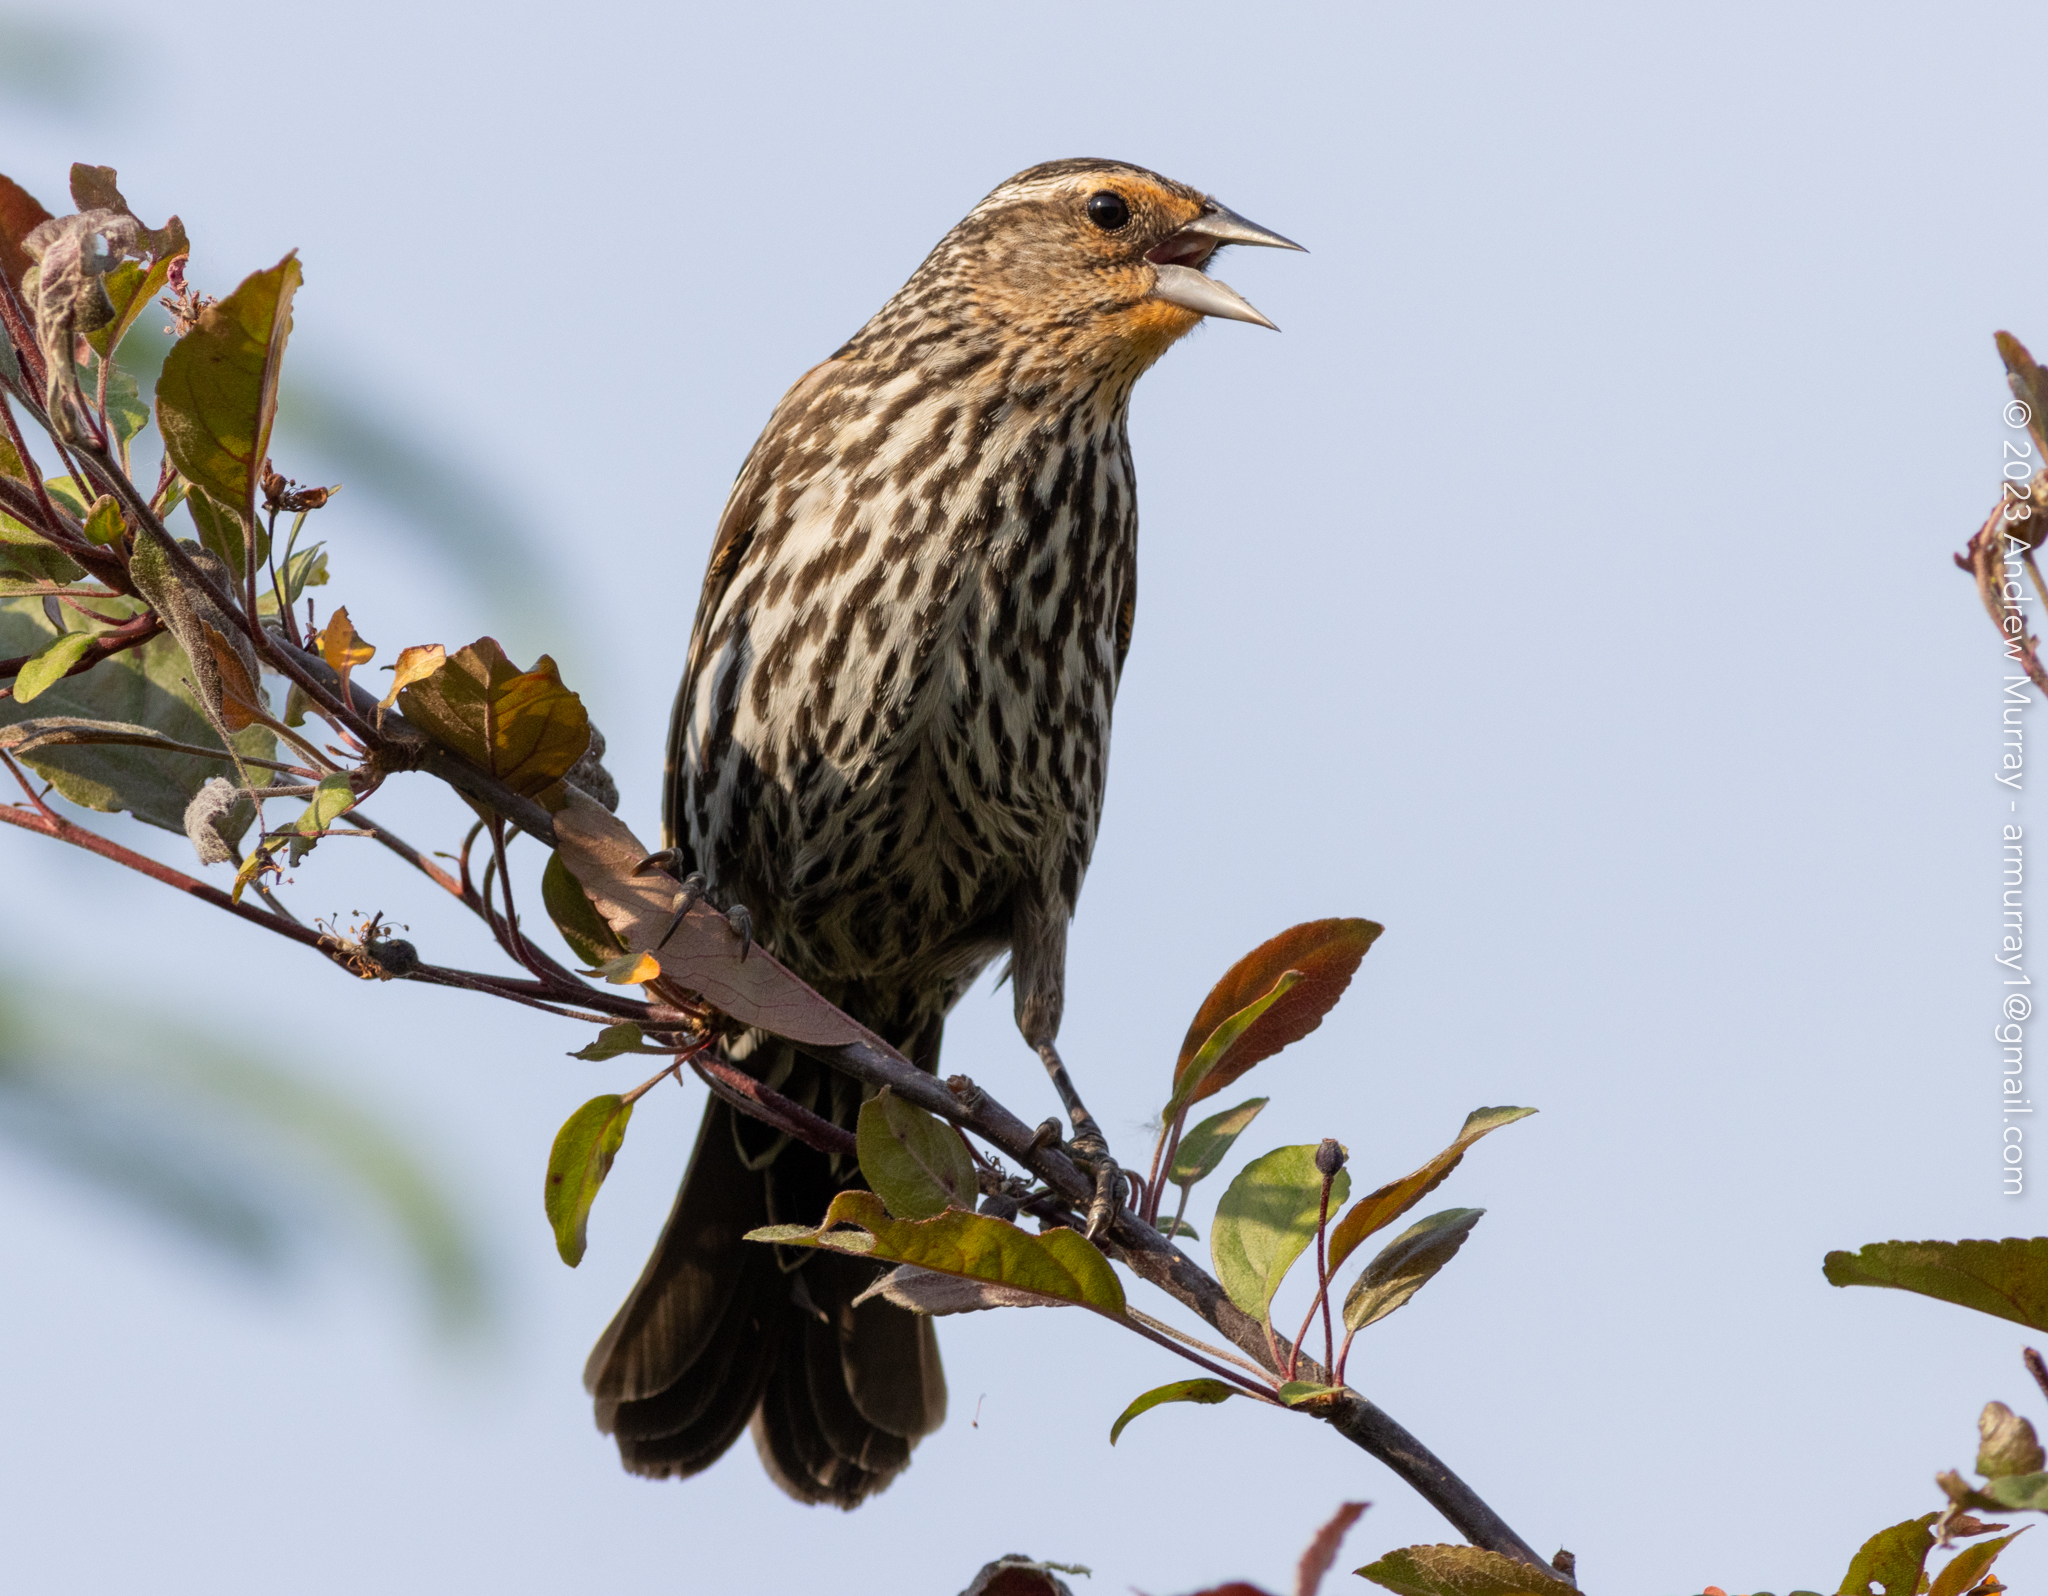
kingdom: Animalia
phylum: Chordata
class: Aves
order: Passeriformes
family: Icteridae
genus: Agelaius
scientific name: Agelaius phoeniceus
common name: Red-winged blackbird
